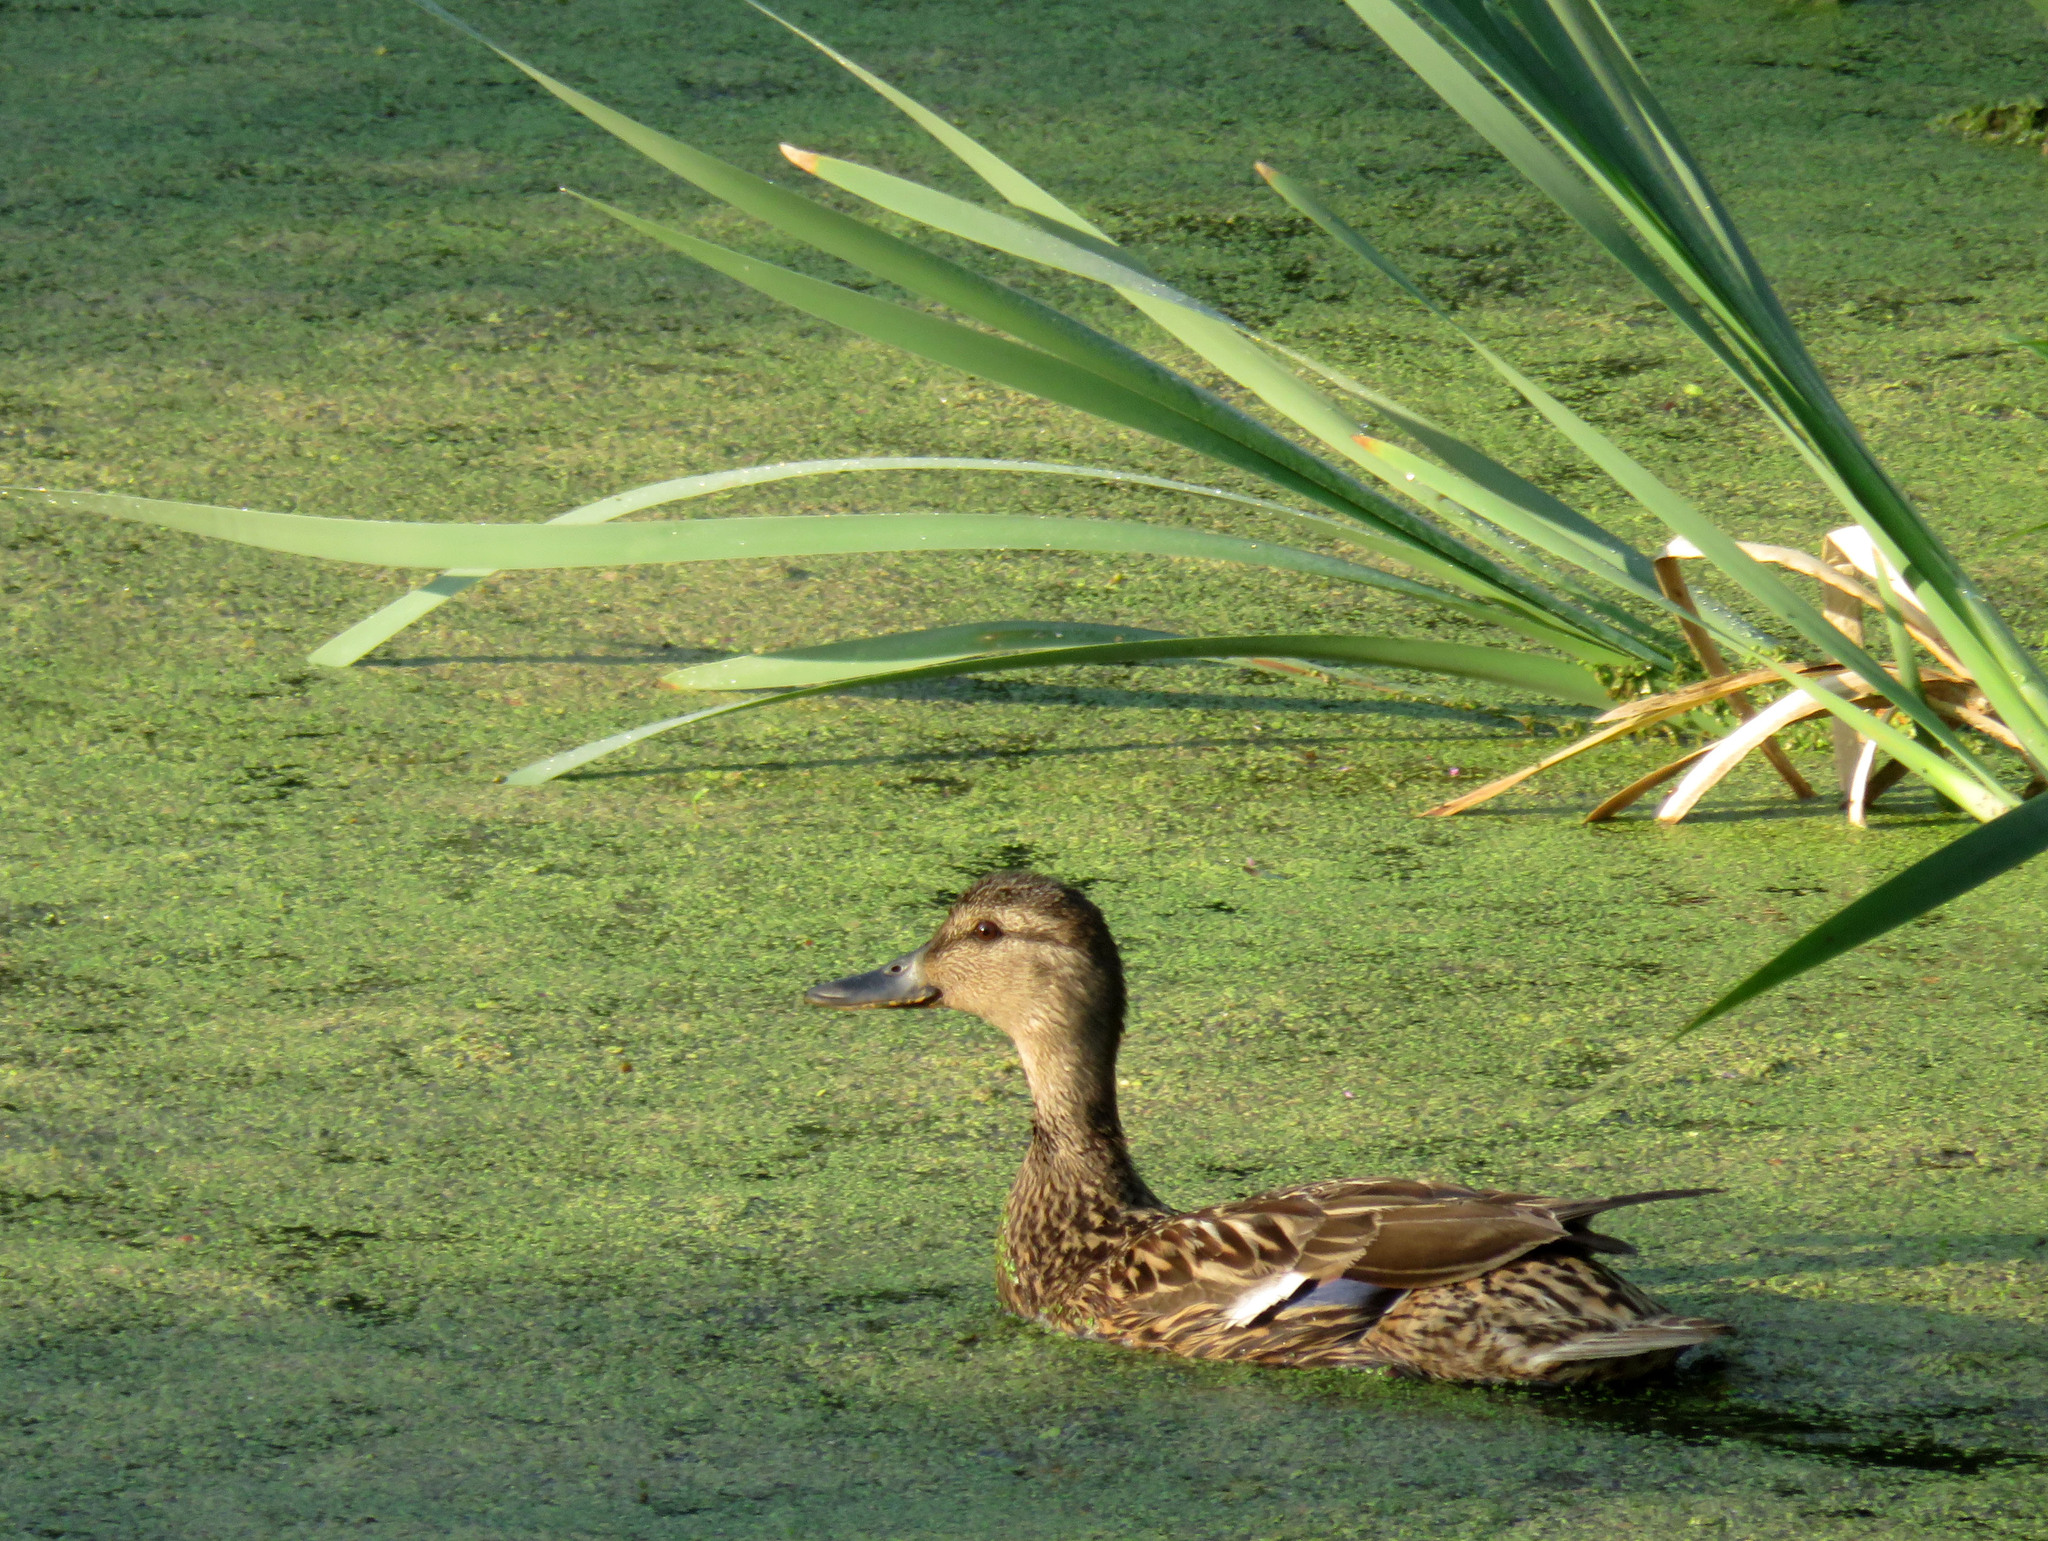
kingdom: Animalia
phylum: Chordata
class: Aves
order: Anseriformes
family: Anatidae
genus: Anas
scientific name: Anas platyrhynchos
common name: Mallard
